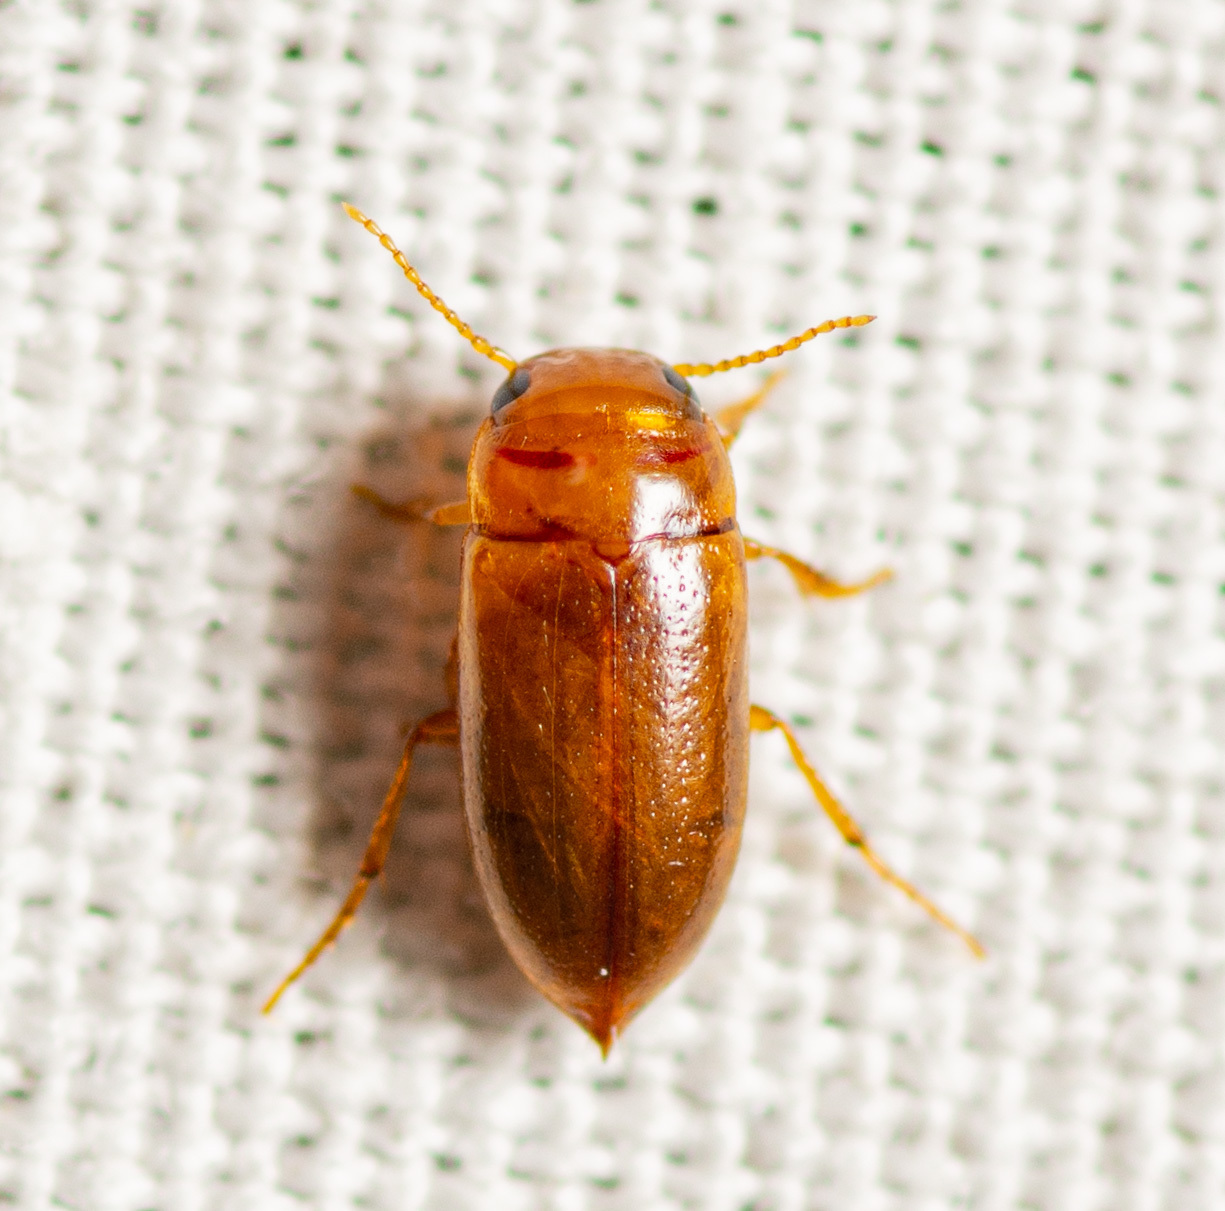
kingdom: Animalia
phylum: Arthropoda
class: Insecta
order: Coleoptera
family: Dytiscidae
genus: Celina
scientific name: Celina
